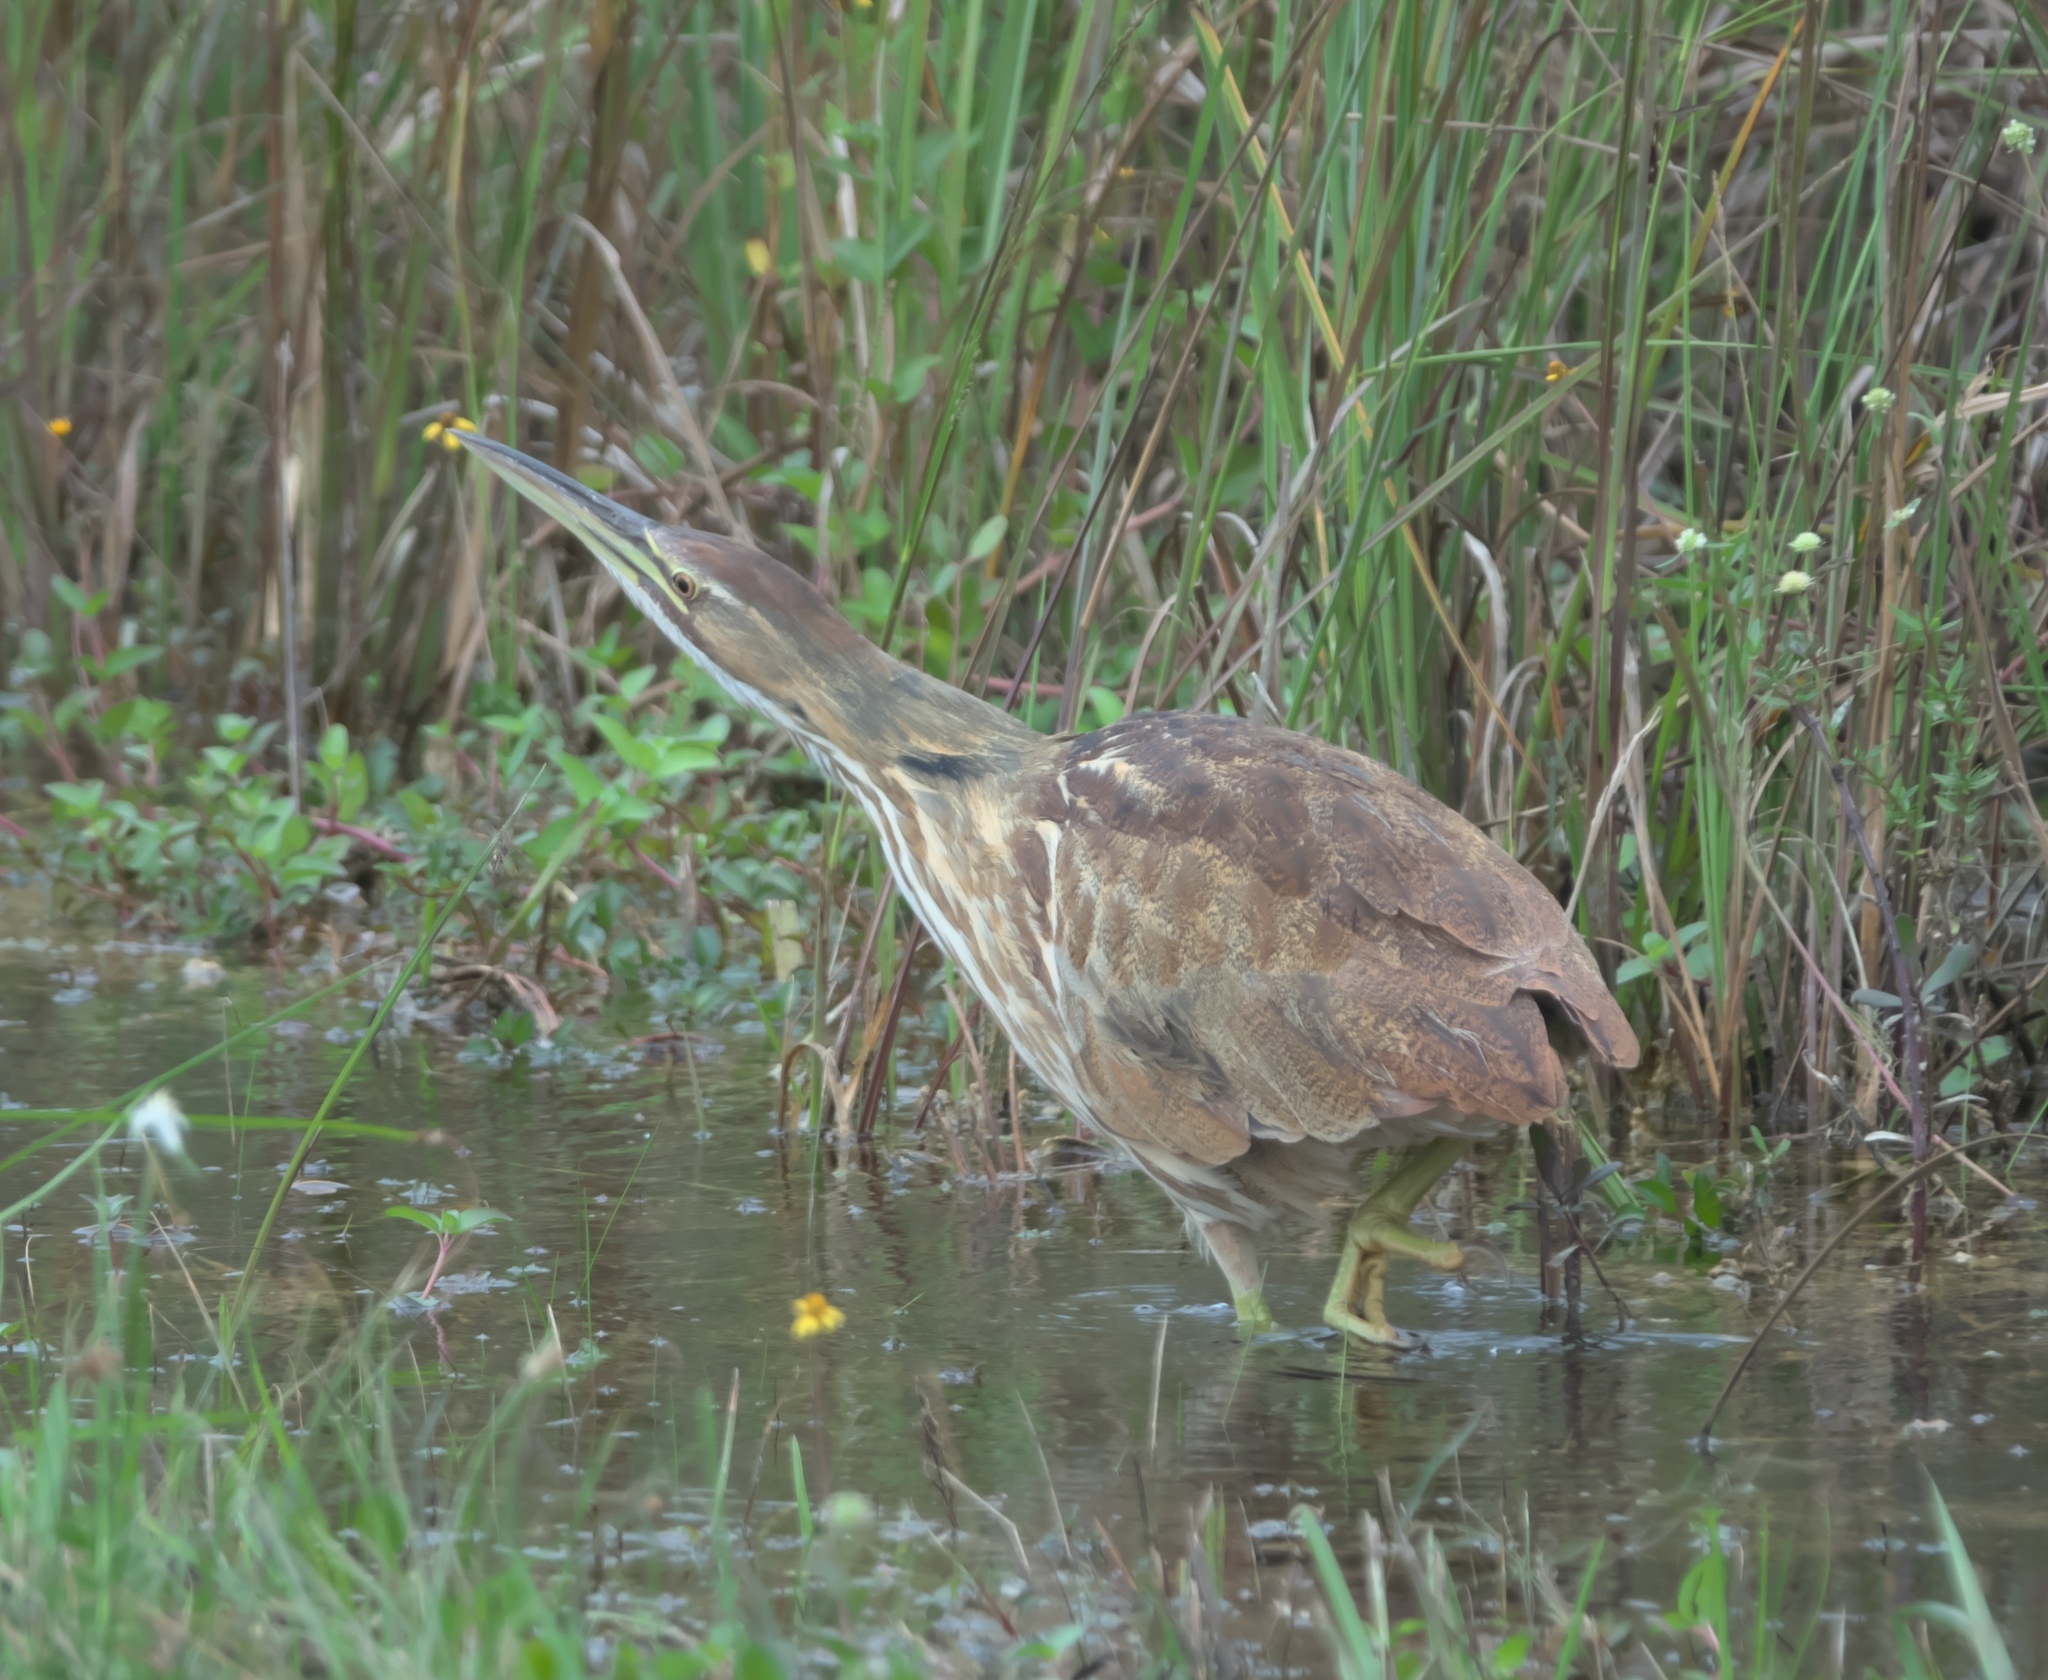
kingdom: Animalia
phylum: Chordata
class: Aves
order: Pelecaniformes
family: Ardeidae
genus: Botaurus
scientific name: Botaurus lentiginosus
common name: American bittern
